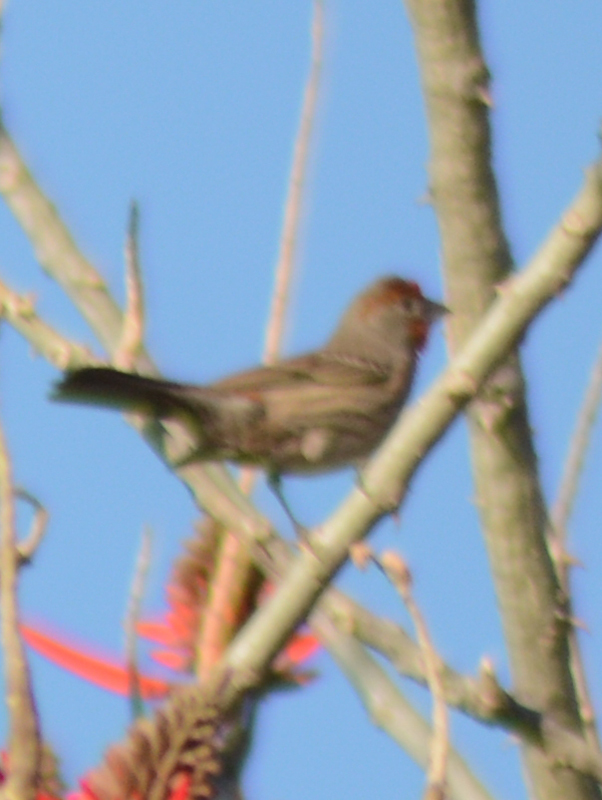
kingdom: Animalia
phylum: Chordata
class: Aves
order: Passeriformes
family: Fringillidae
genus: Haemorhous
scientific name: Haemorhous mexicanus
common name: House finch
